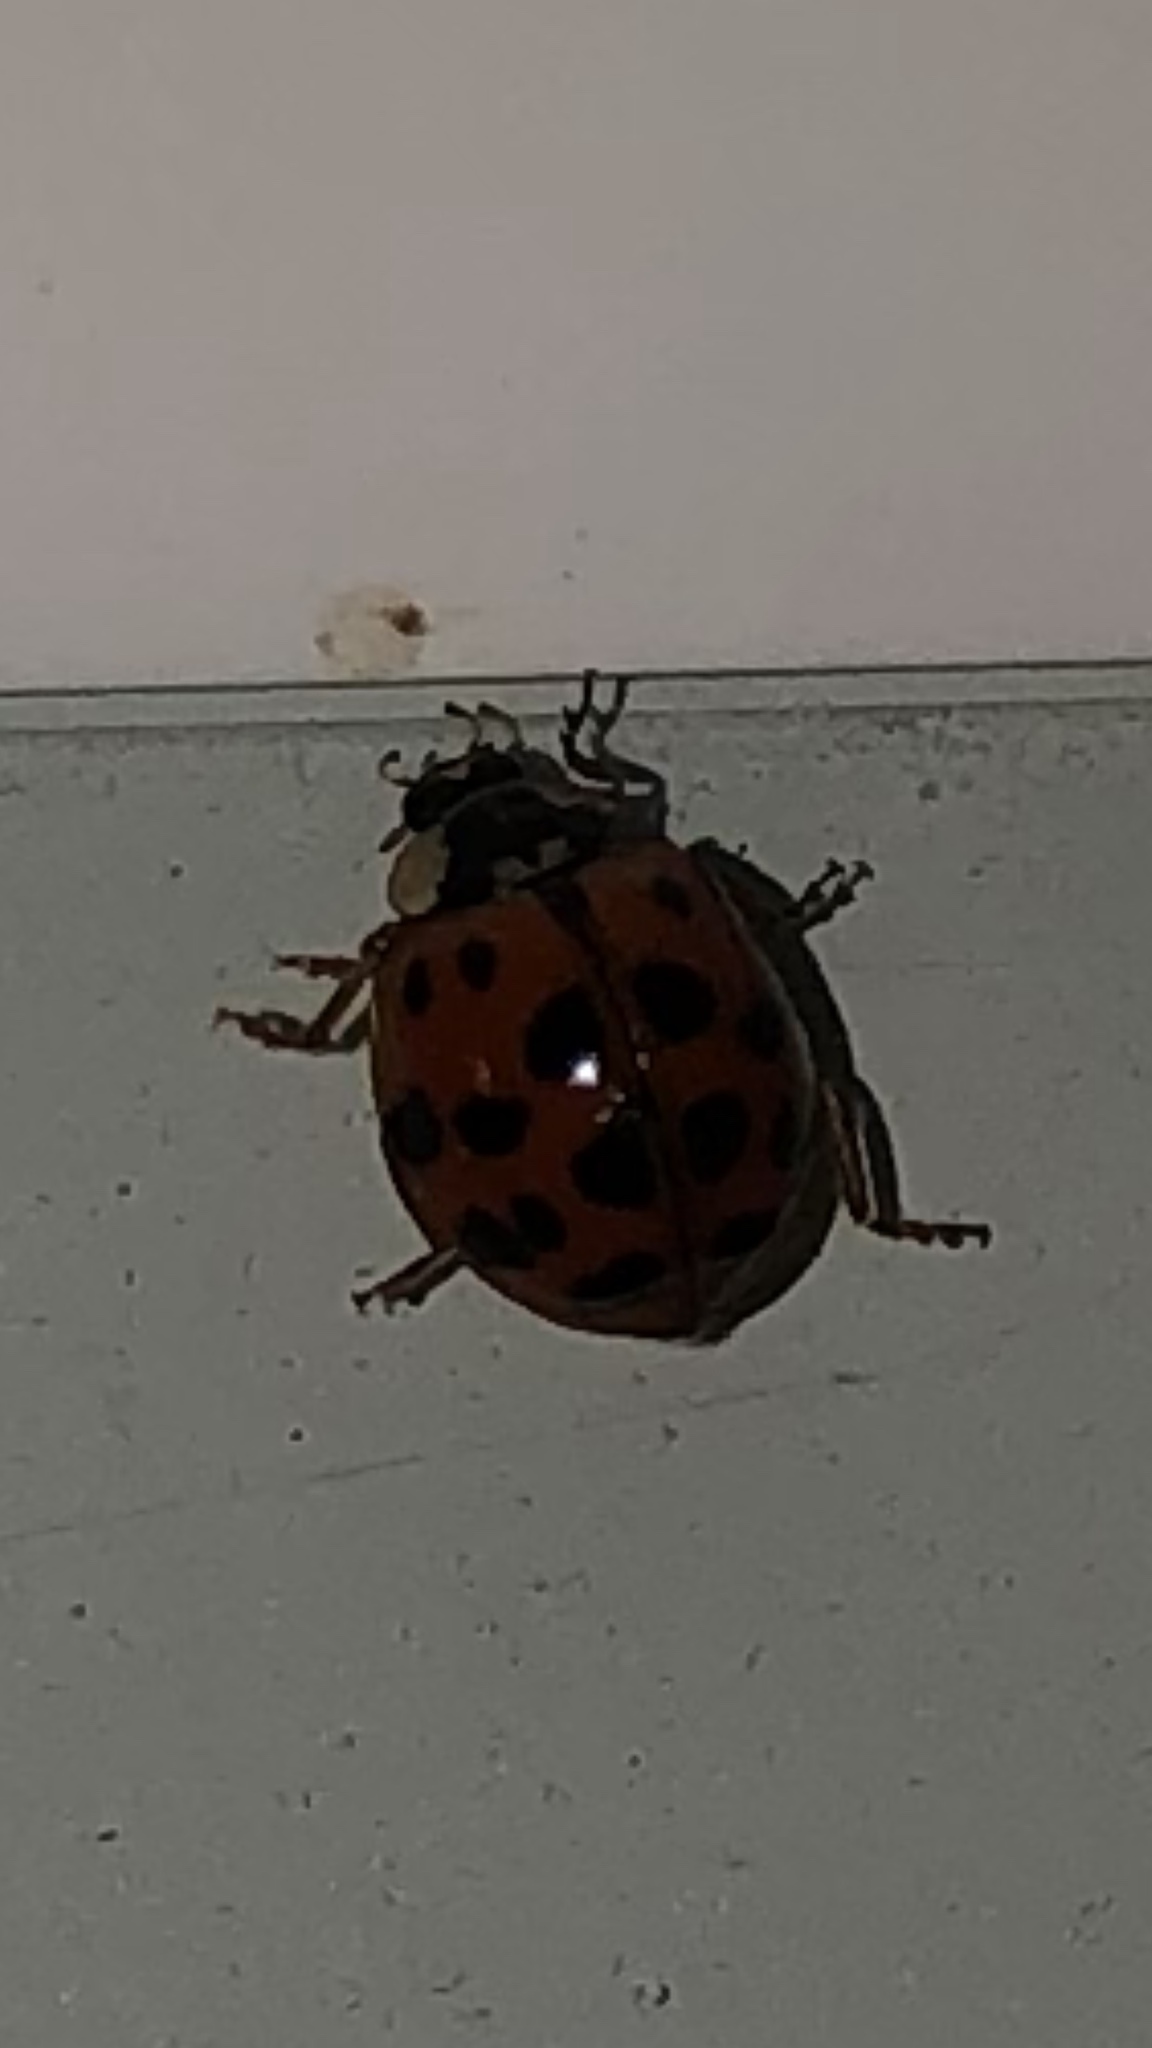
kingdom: Animalia
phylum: Arthropoda
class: Insecta
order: Coleoptera
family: Coccinellidae
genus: Harmonia
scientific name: Harmonia axyridis
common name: Harlequin ladybird
